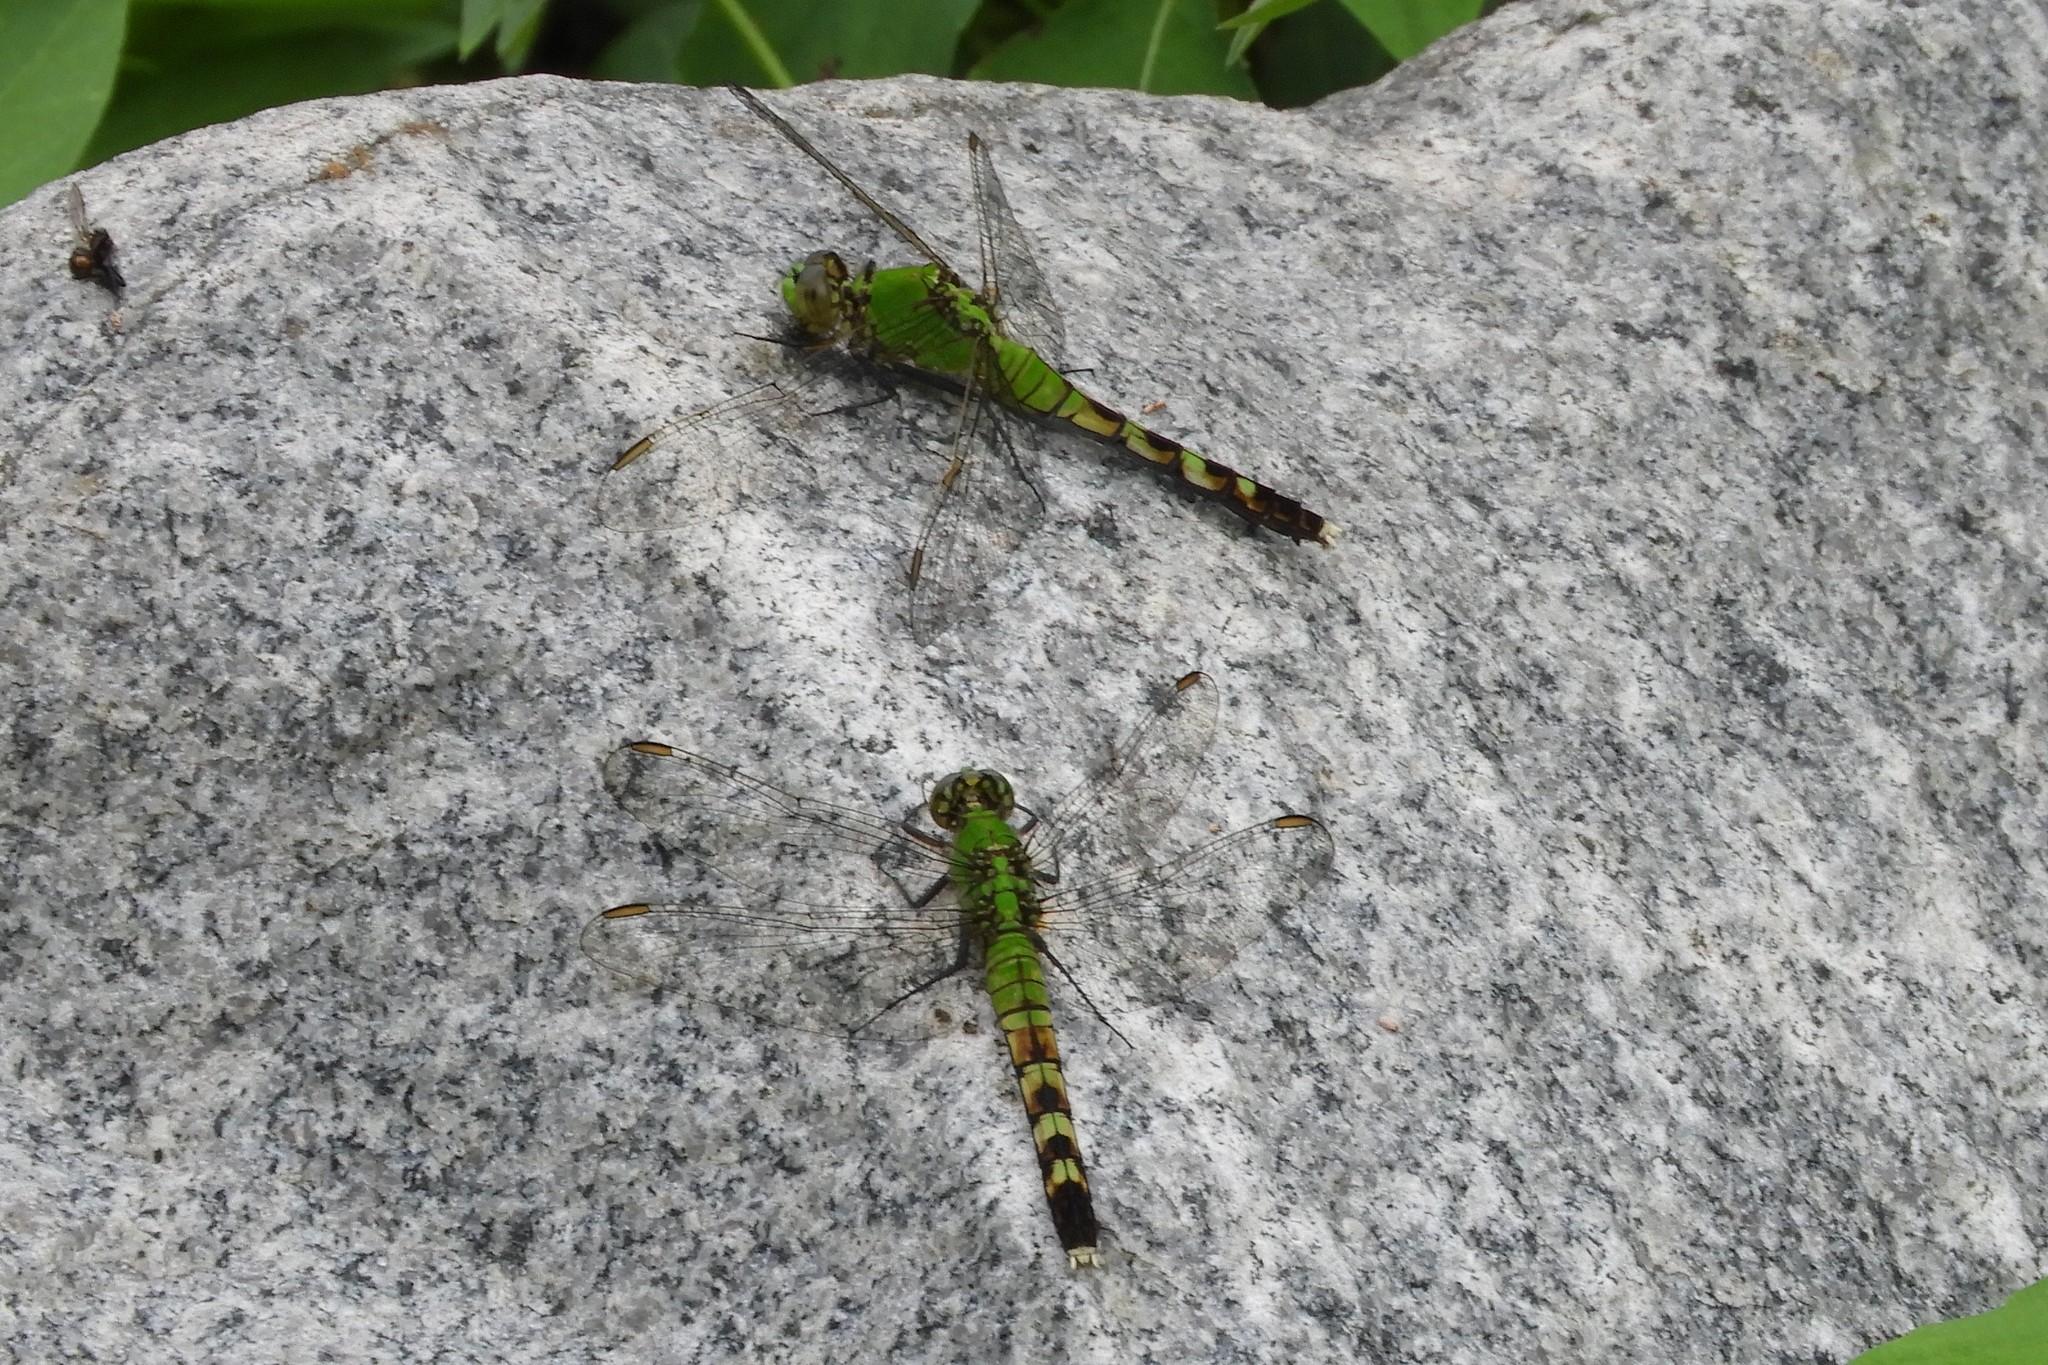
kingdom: Animalia
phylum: Arthropoda
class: Insecta
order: Odonata
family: Libellulidae
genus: Erythemis
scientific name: Erythemis simplicicollis
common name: Eastern pondhawk
